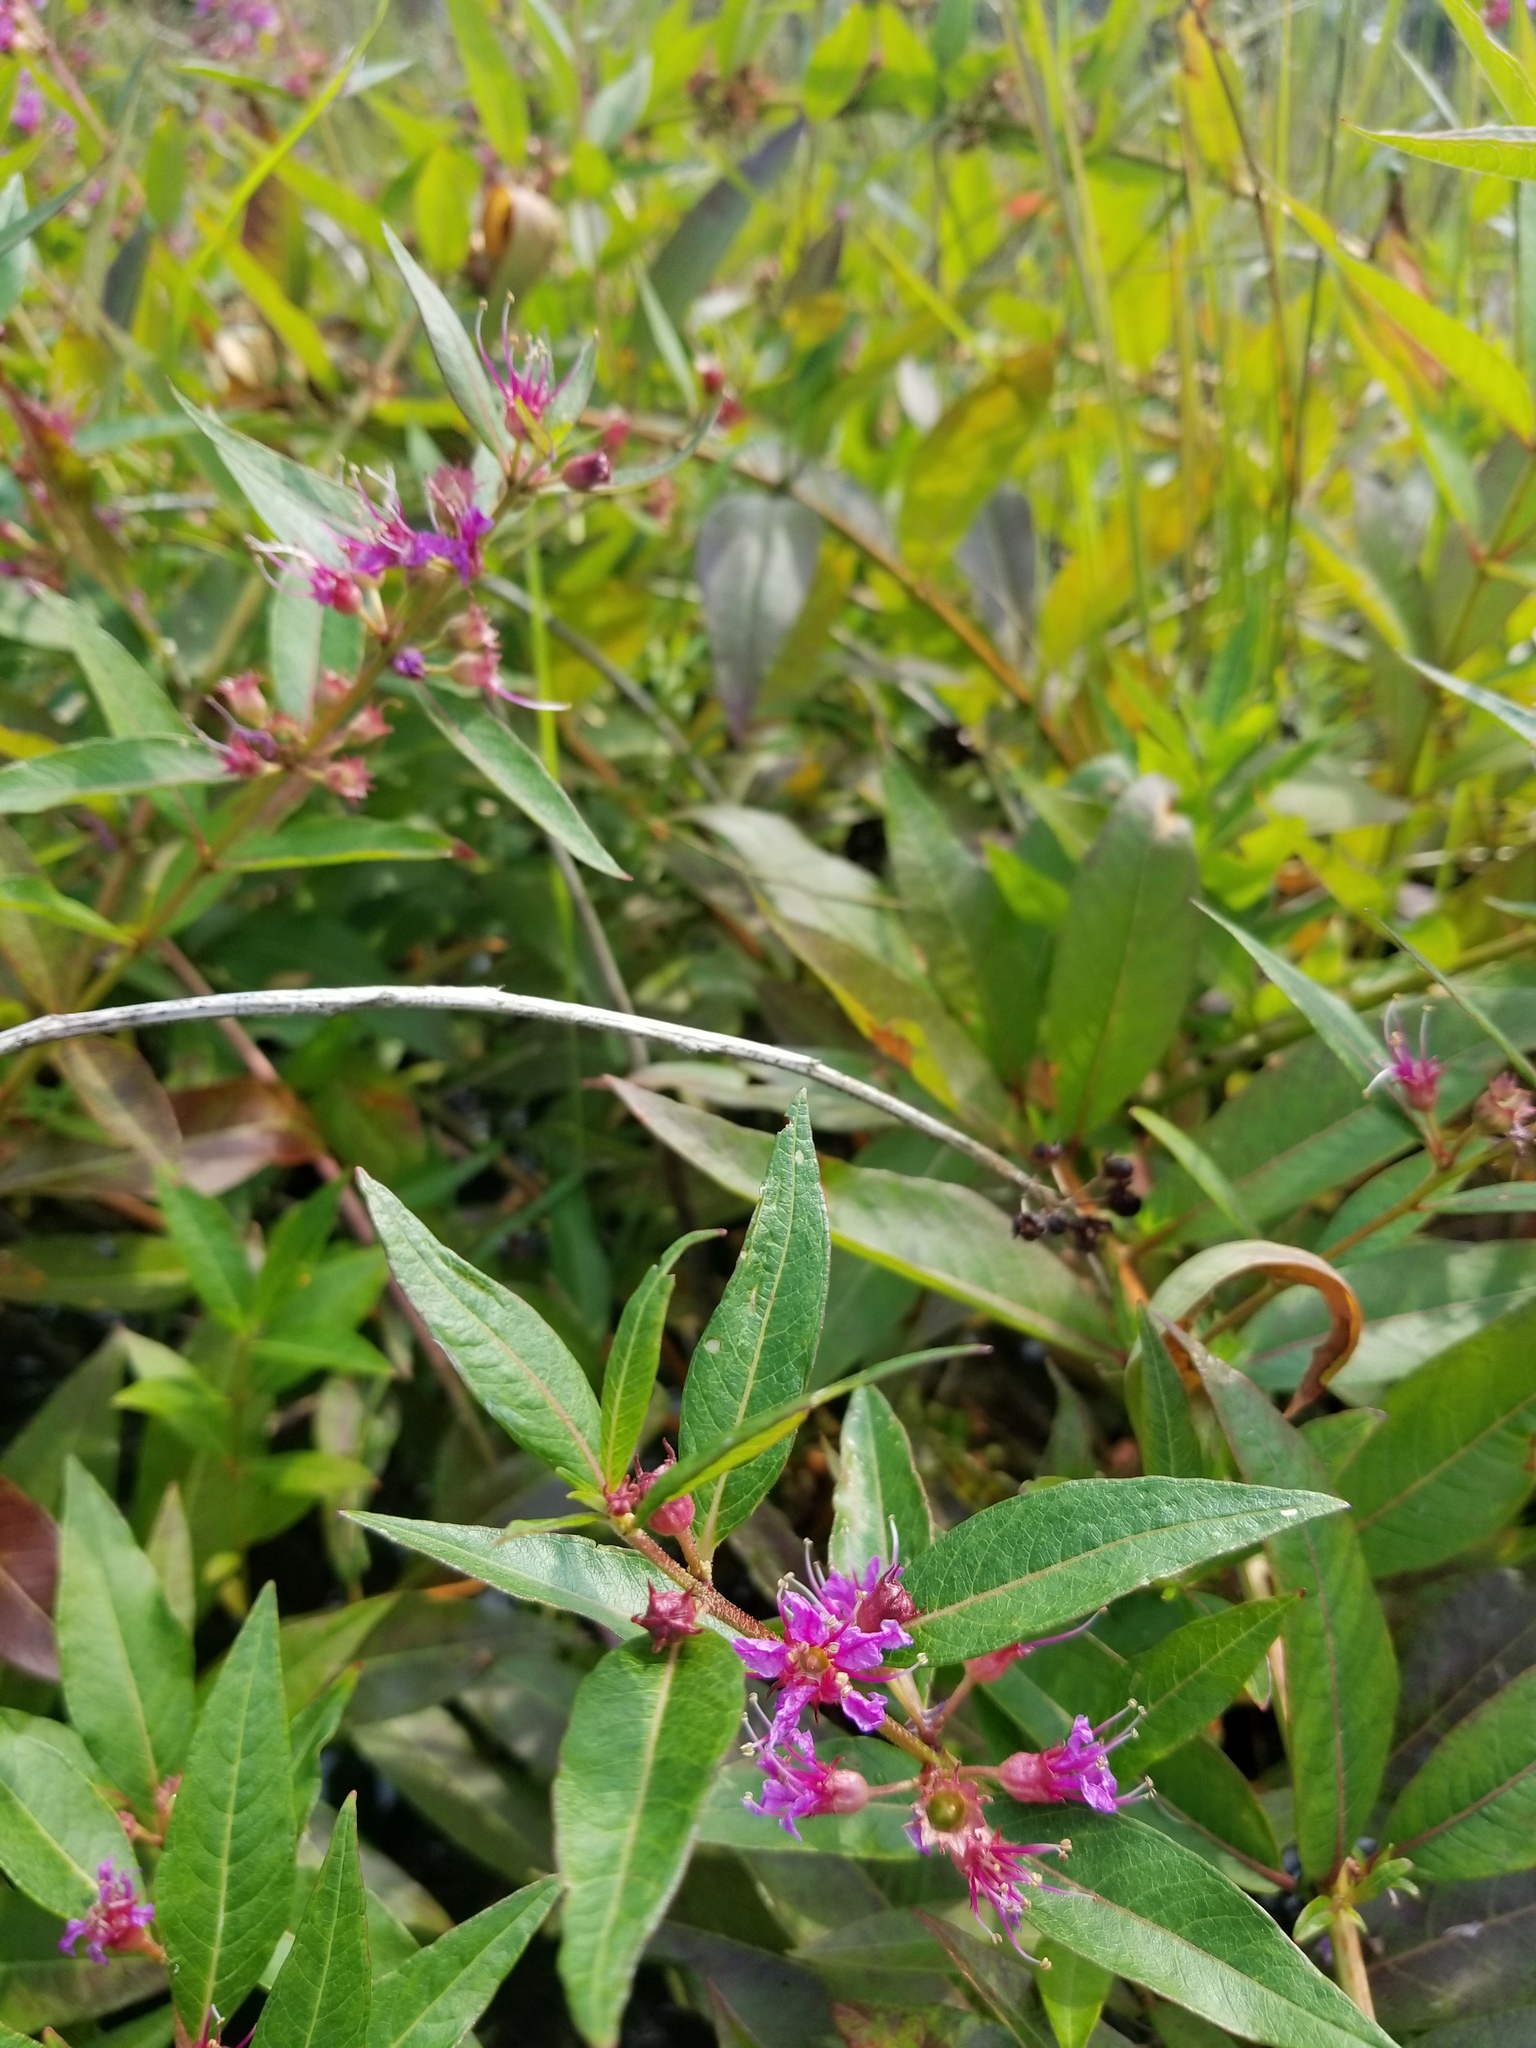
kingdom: Plantae
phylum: Tracheophyta
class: Magnoliopsida
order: Myrtales
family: Lythraceae
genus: Decodon
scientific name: Decodon verticillatus
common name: Hairy swamp loosestrife
